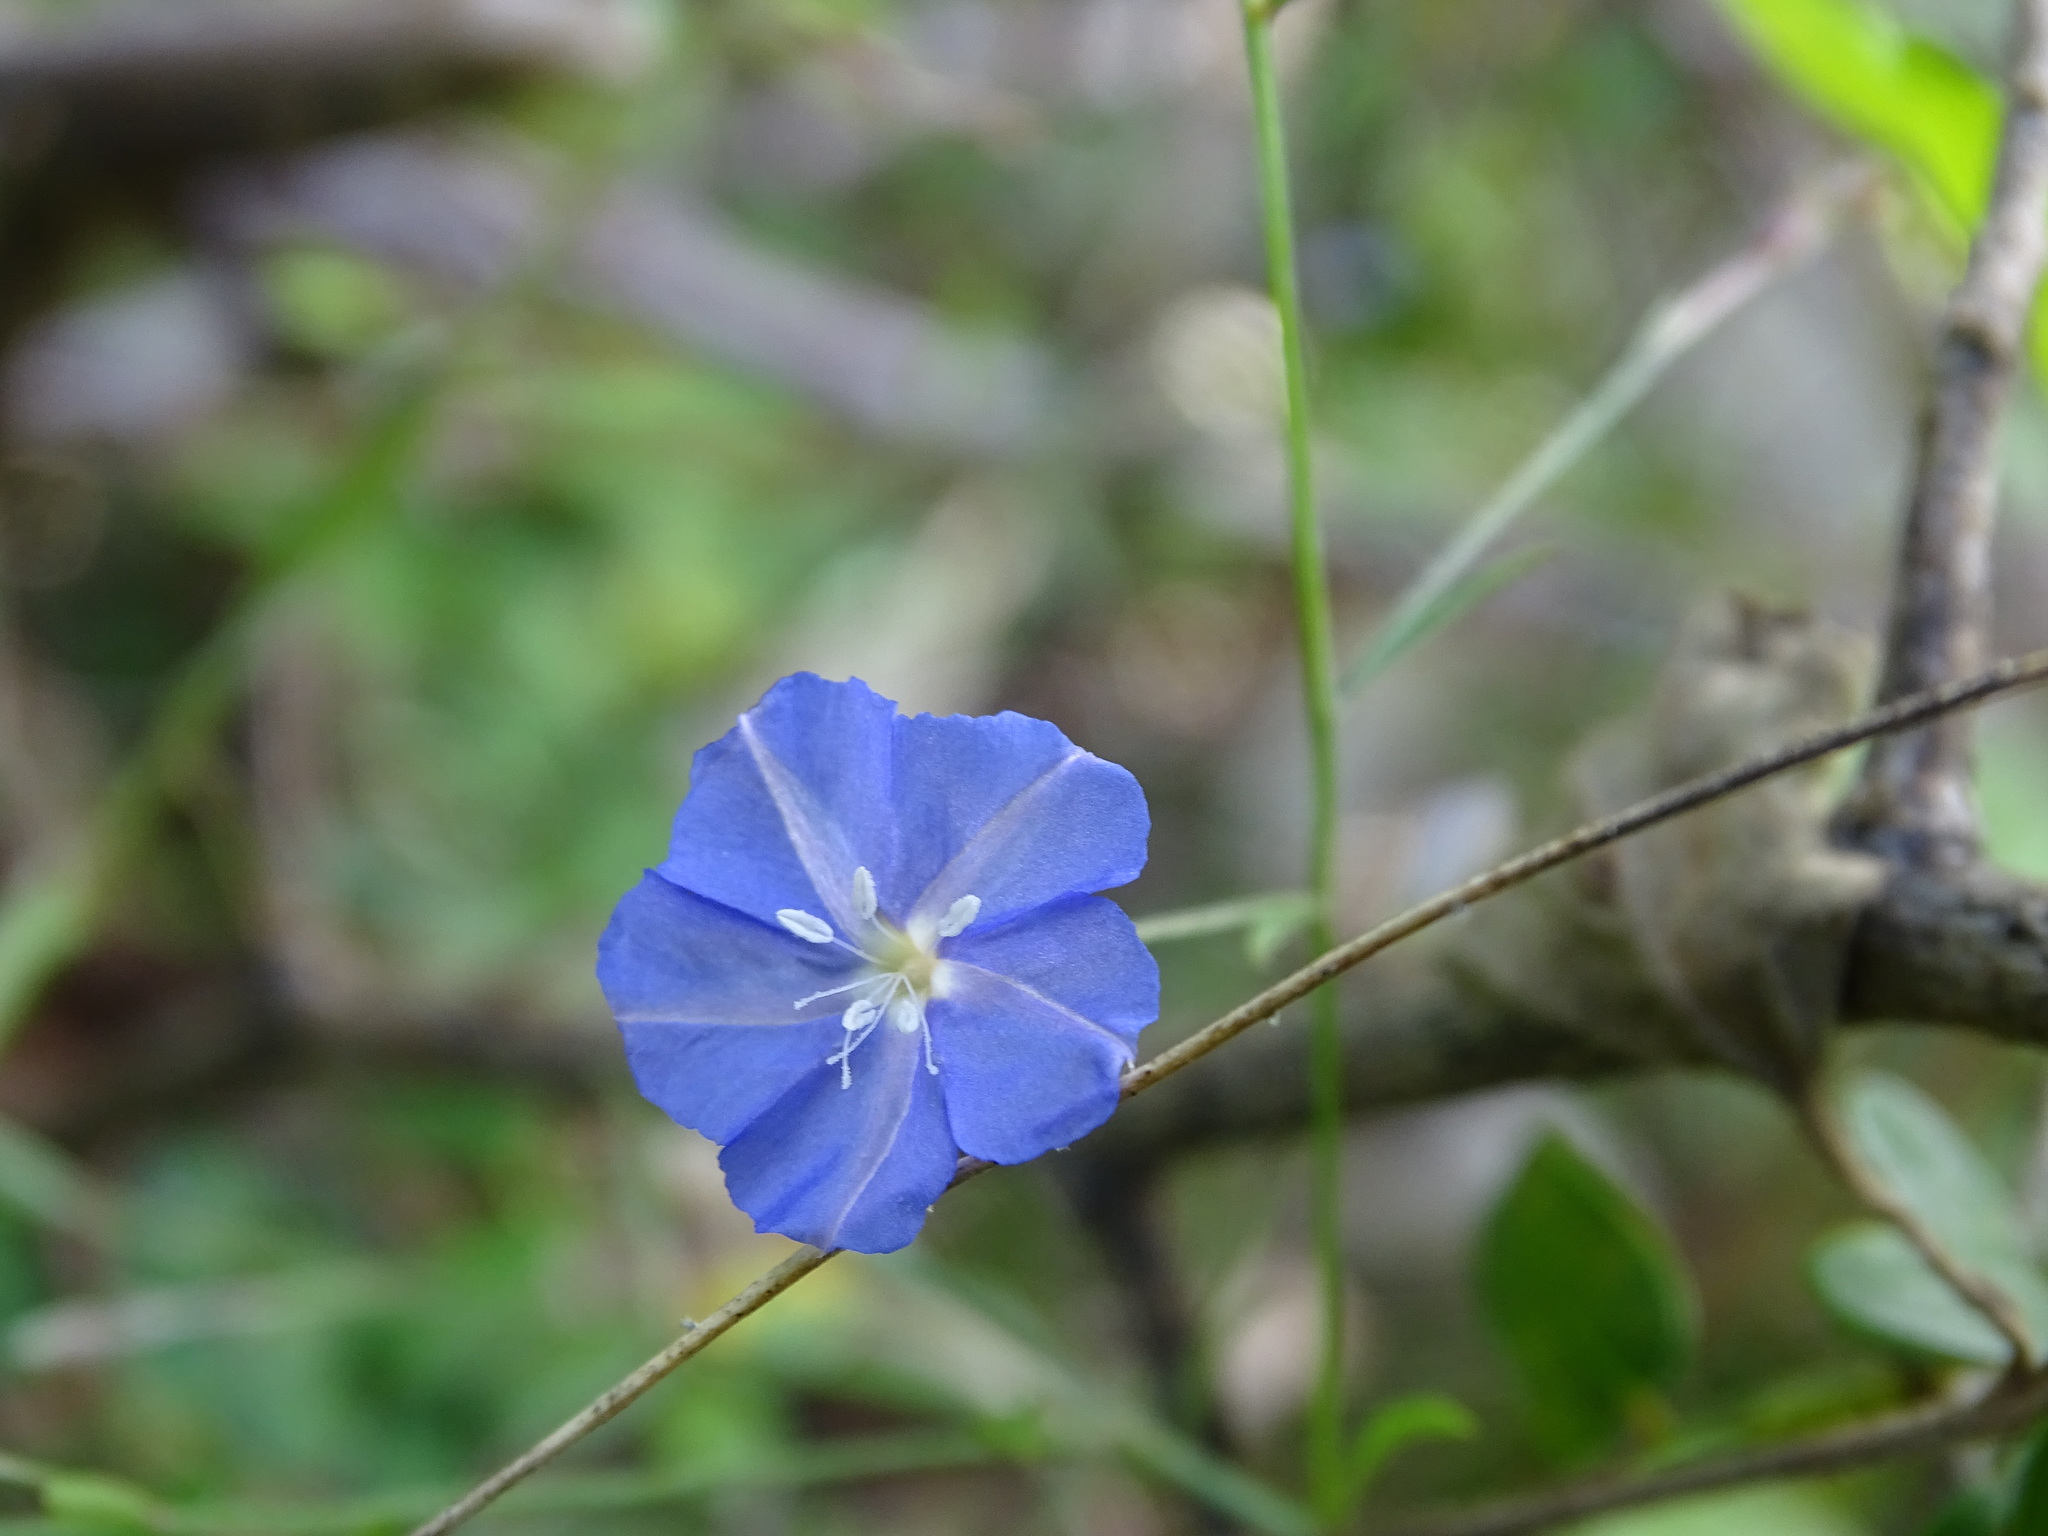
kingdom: Plantae
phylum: Tracheophyta
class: Magnoliopsida
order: Solanales
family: Convolvulaceae
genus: Evolvulus
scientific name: Evolvulus alsinoides
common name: Slender dwarf morning-glory
